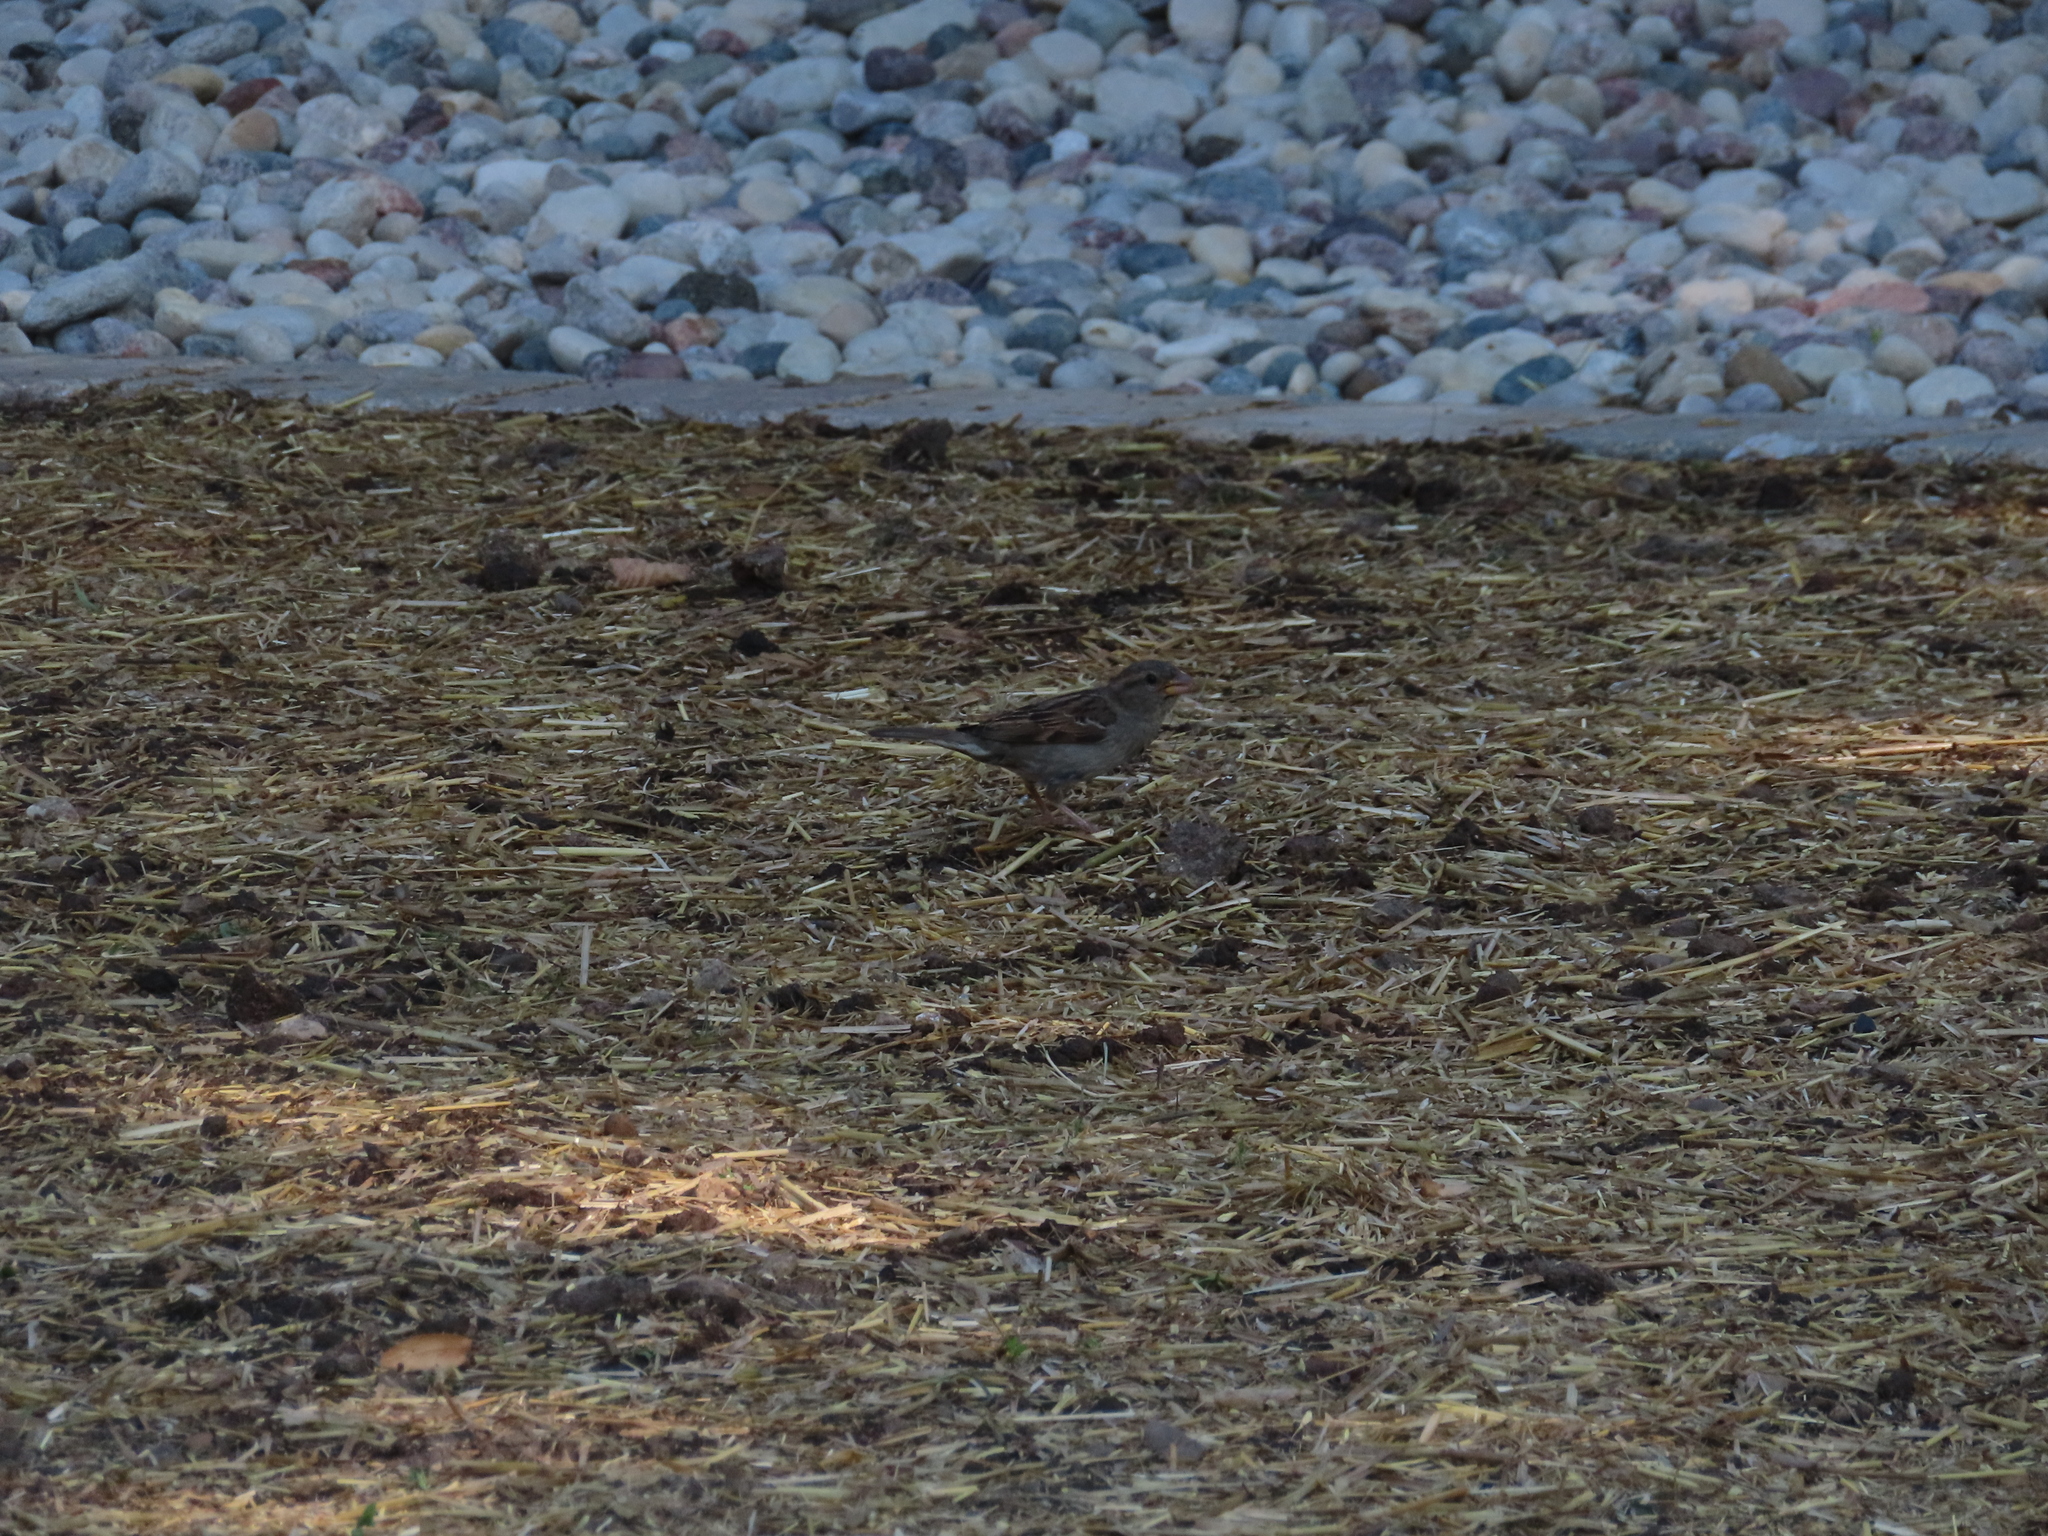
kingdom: Animalia
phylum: Chordata
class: Aves
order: Passeriformes
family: Passeridae
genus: Passer
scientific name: Passer domesticus
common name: House sparrow
